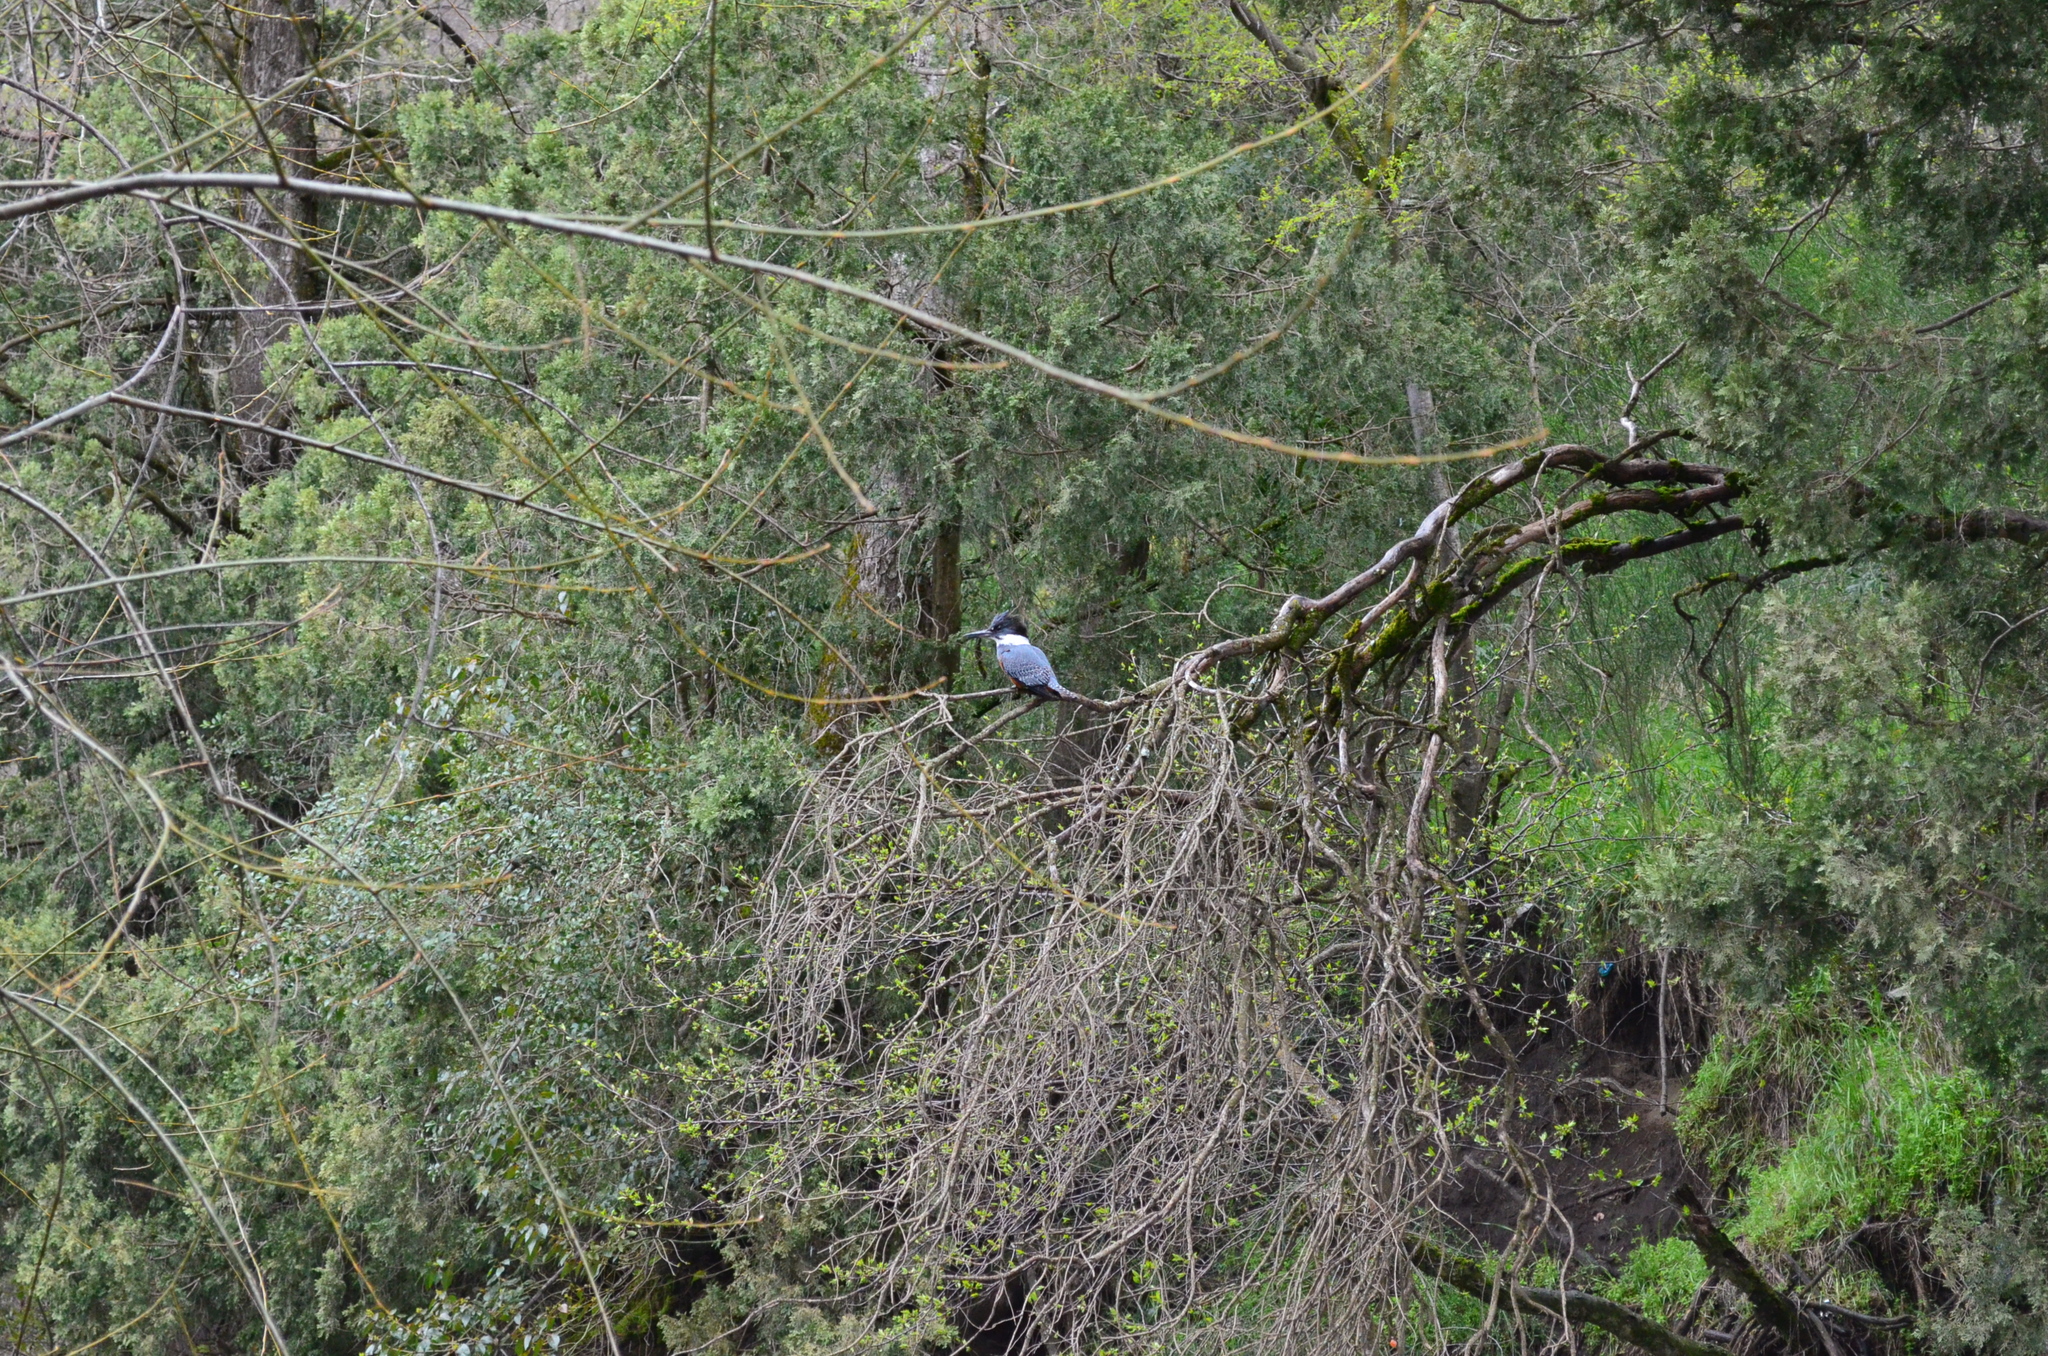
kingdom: Animalia
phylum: Chordata
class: Aves
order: Coraciiformes
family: Alcedinidae
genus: Megaceryle
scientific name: Megaceryle torquata
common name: Ringed kingfisher
